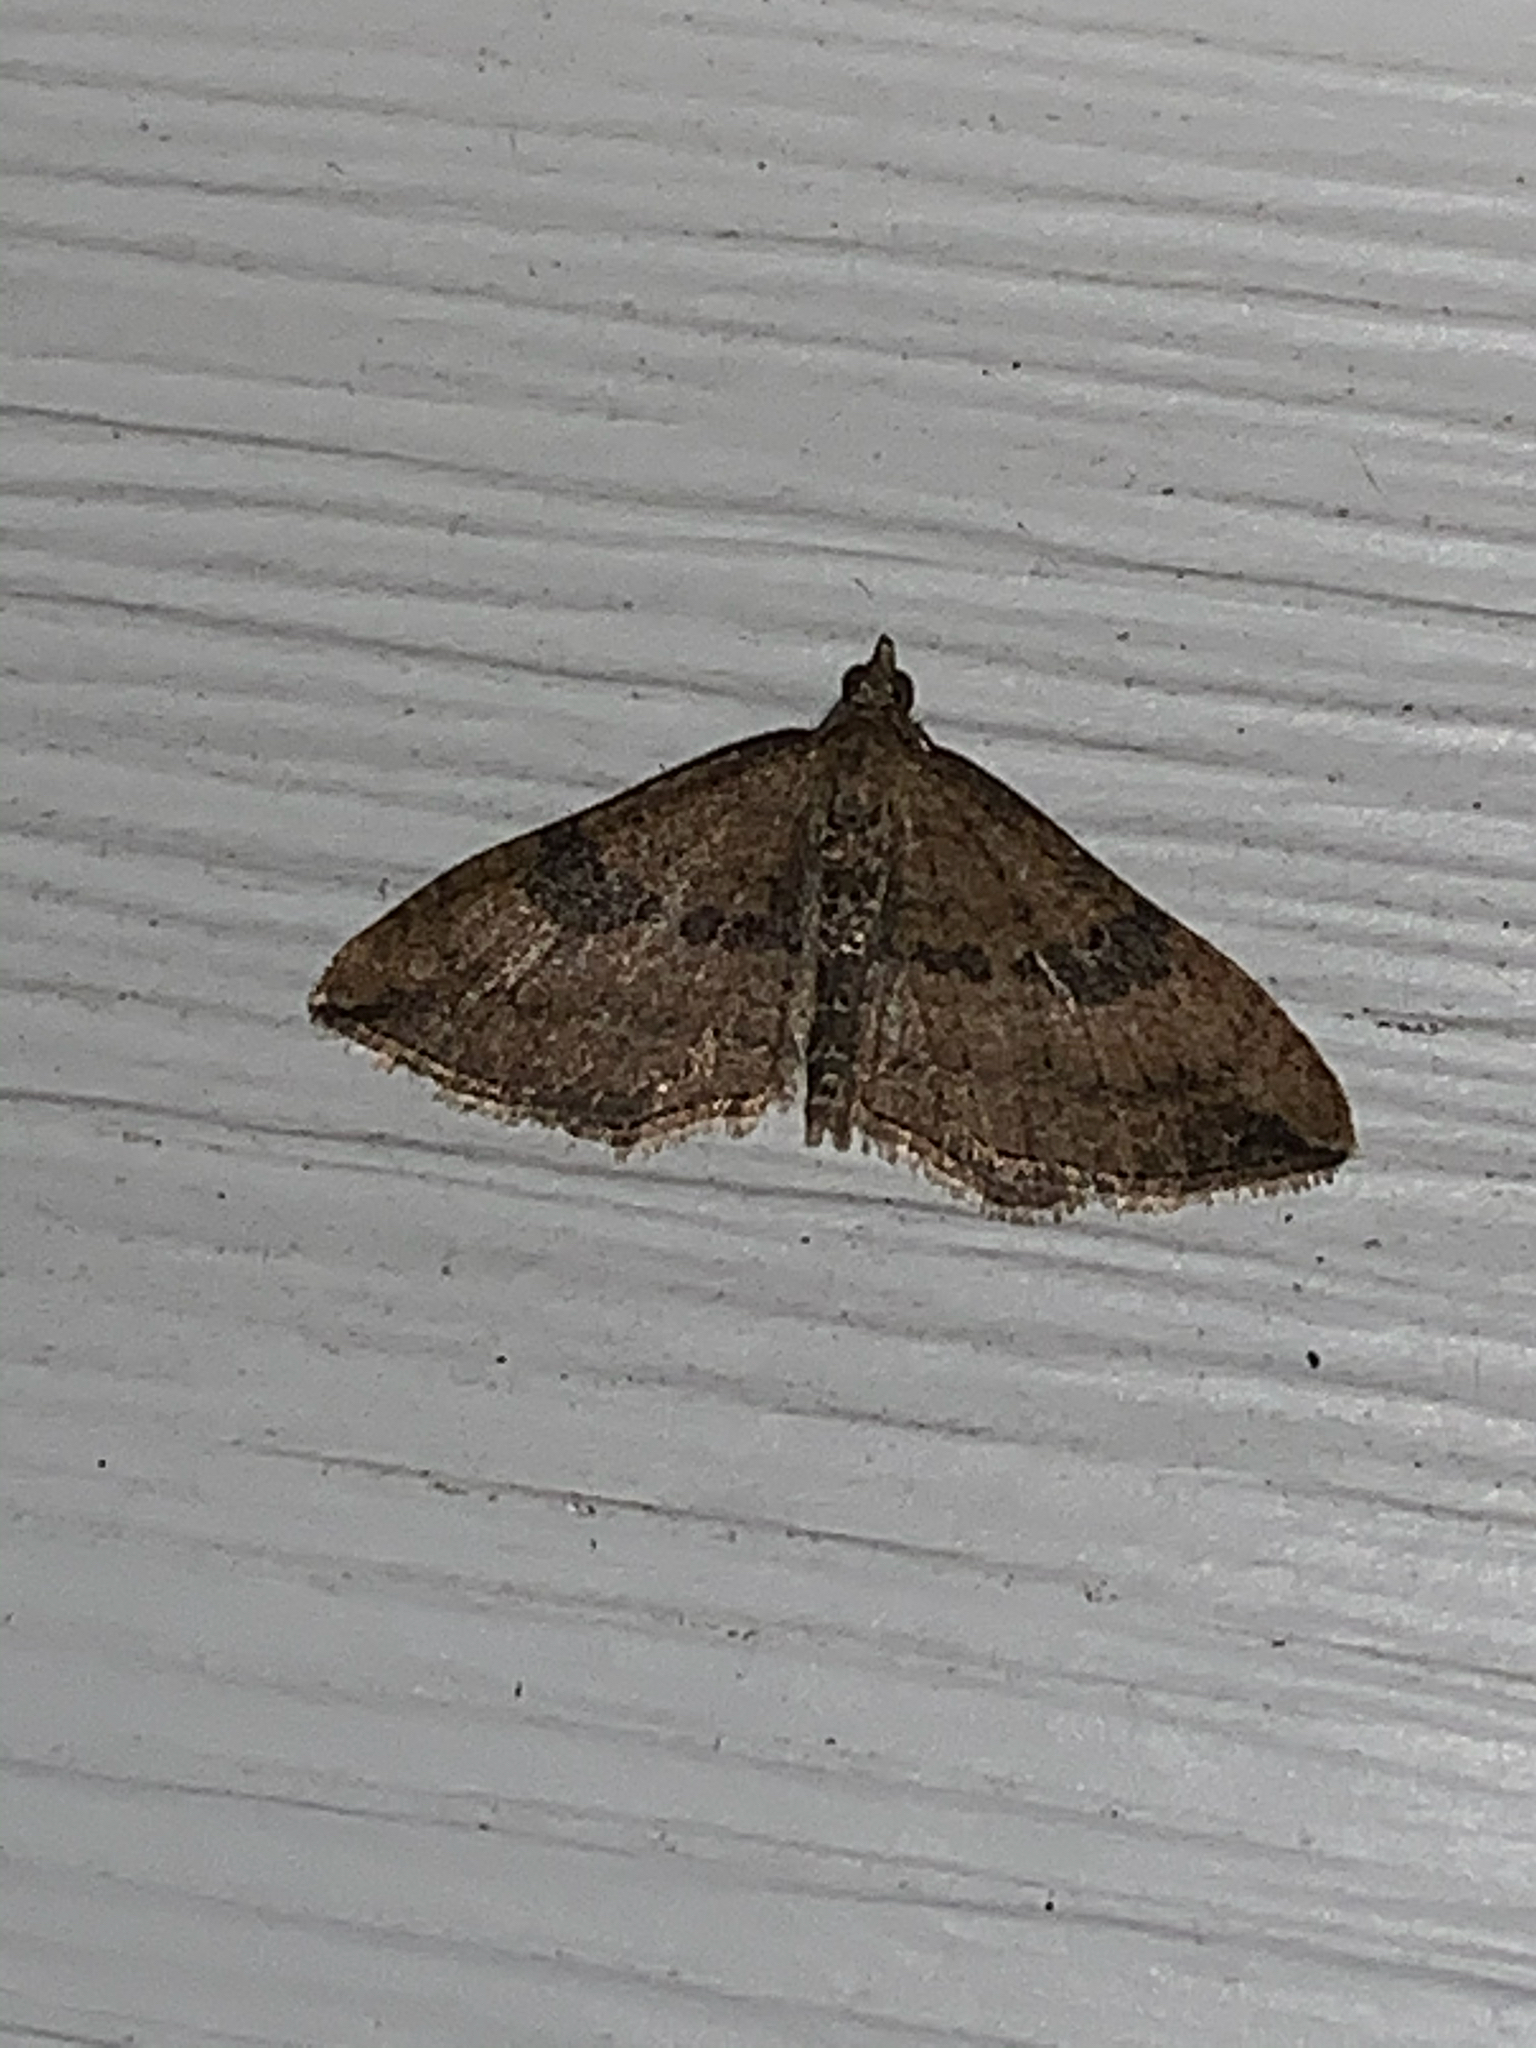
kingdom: Animalia
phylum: Arthropoda
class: Insecta
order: Lepidoptera
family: Geometridae
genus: Orthonama
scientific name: Orthonama obstipata
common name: The gem
